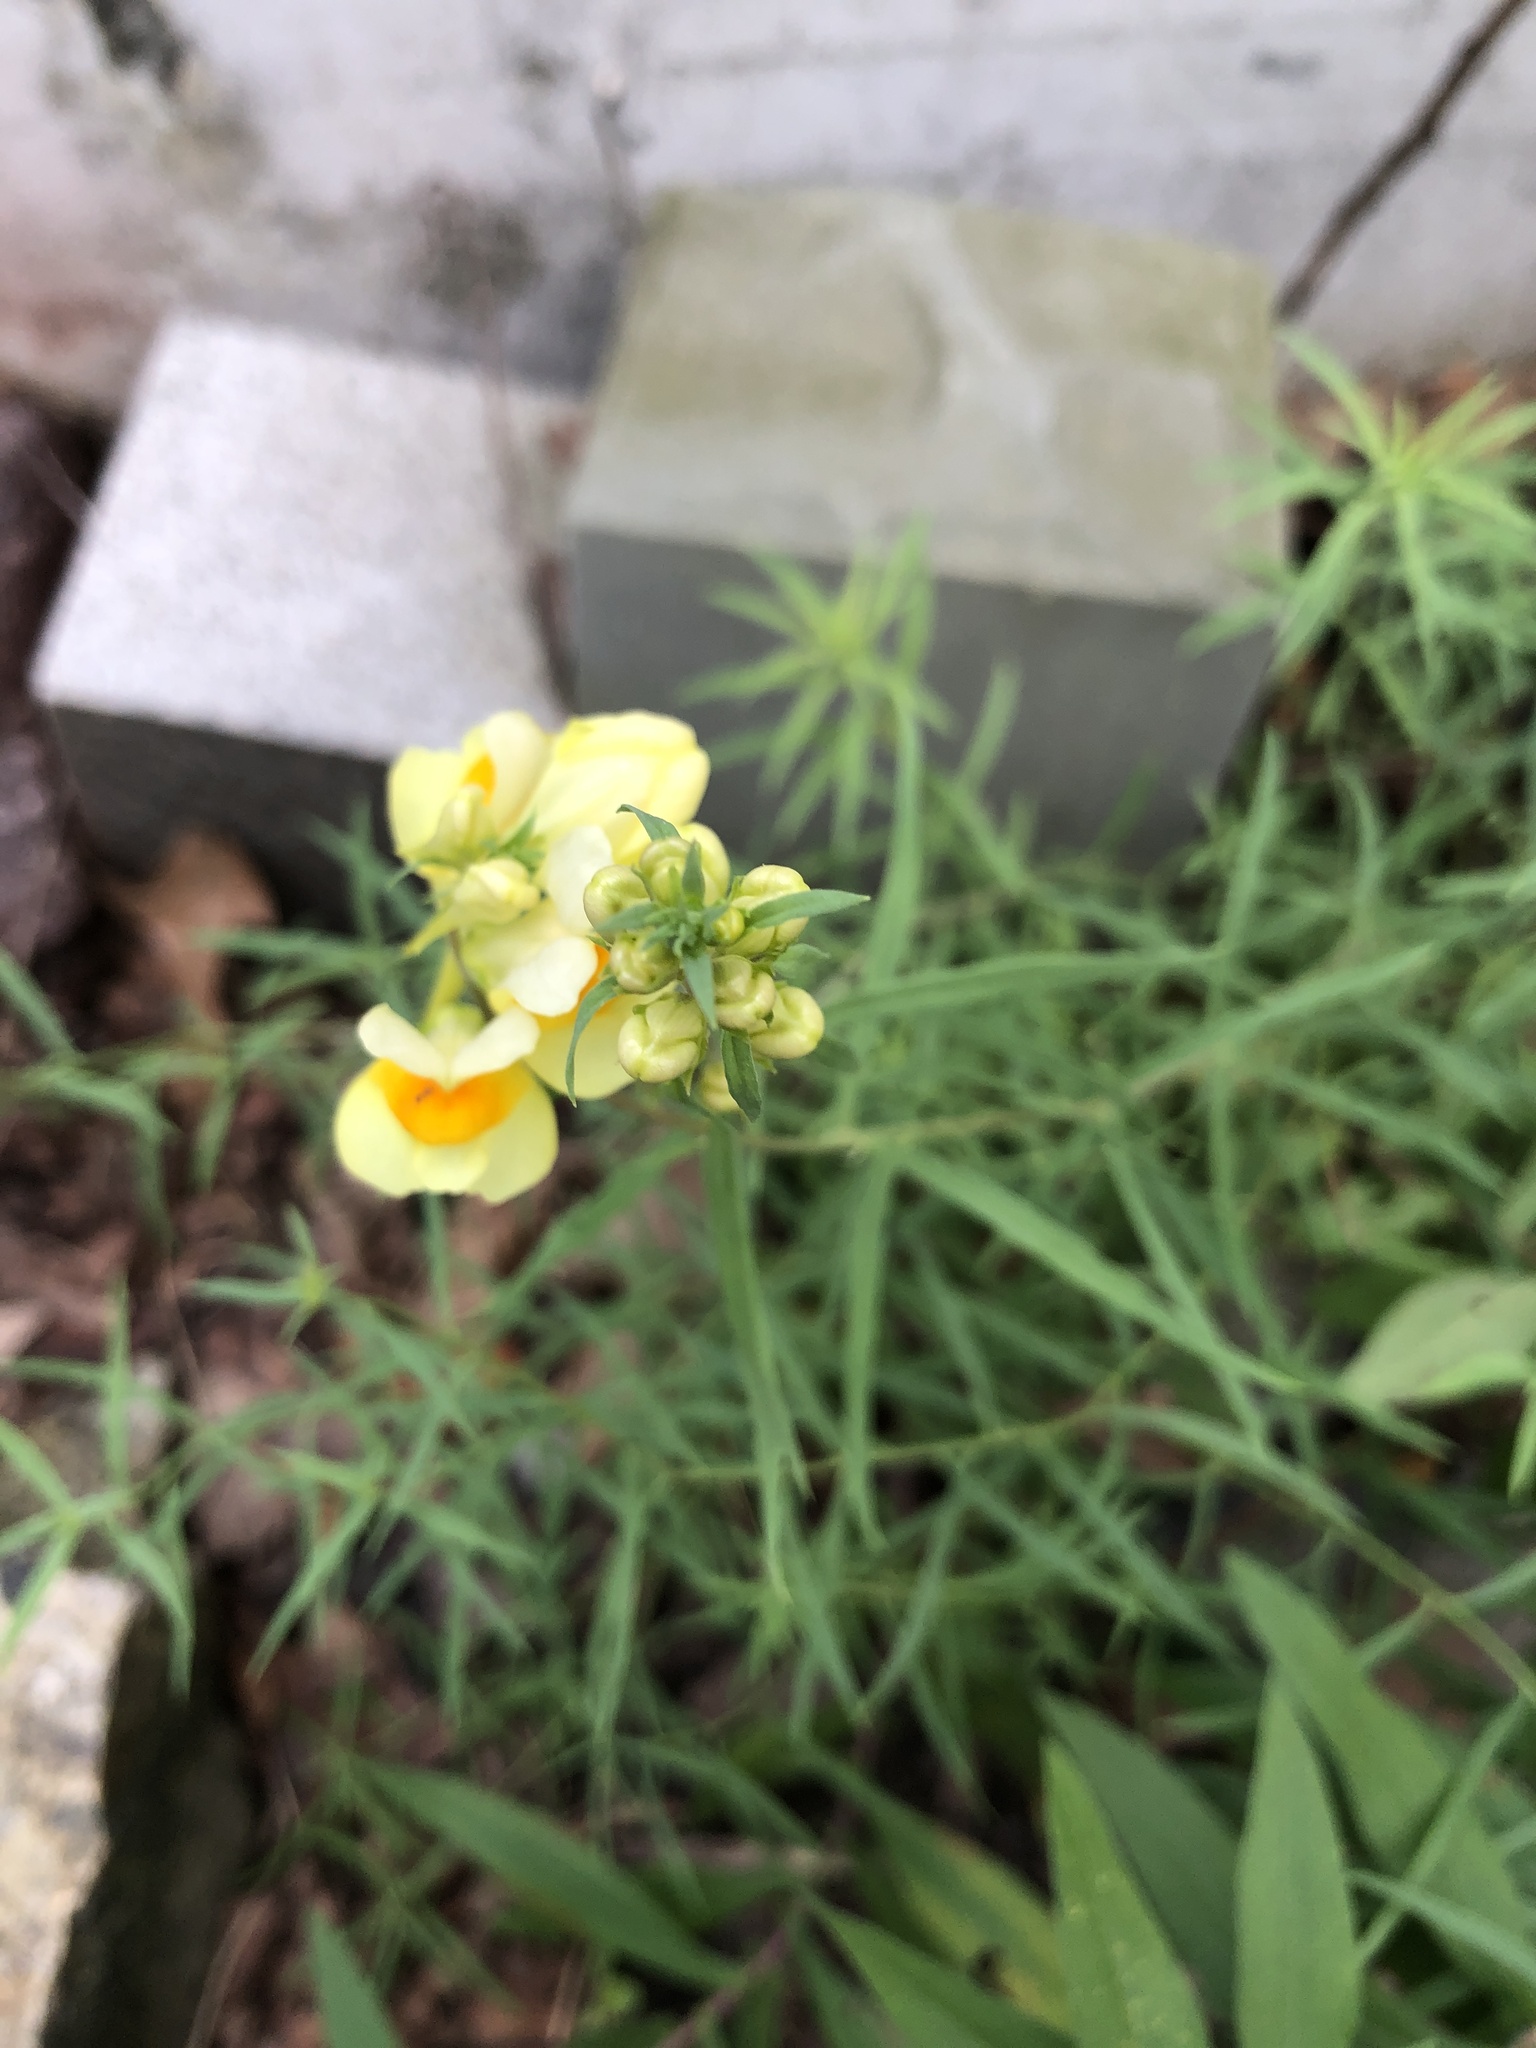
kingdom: Plantae
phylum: Tracheophyta
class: Magnoliopsida
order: Lamiales
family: Plantaginaceae
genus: Linaria
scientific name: Linaria vulgaris
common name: Butter and eggs
